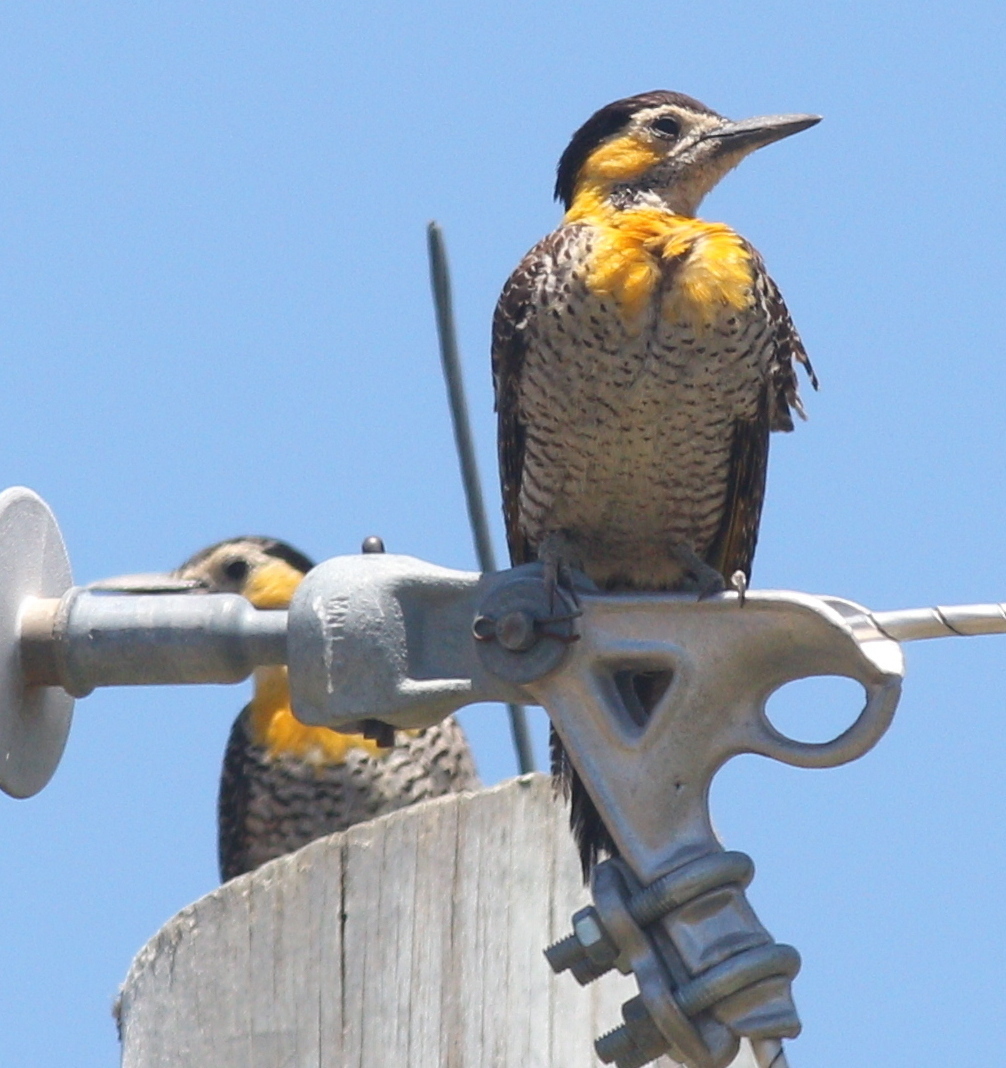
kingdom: Animalia
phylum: Chordata
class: Aves
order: Piciformes
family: Picidae
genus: Colaptes
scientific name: Colaptes campestris
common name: Campo flicker
